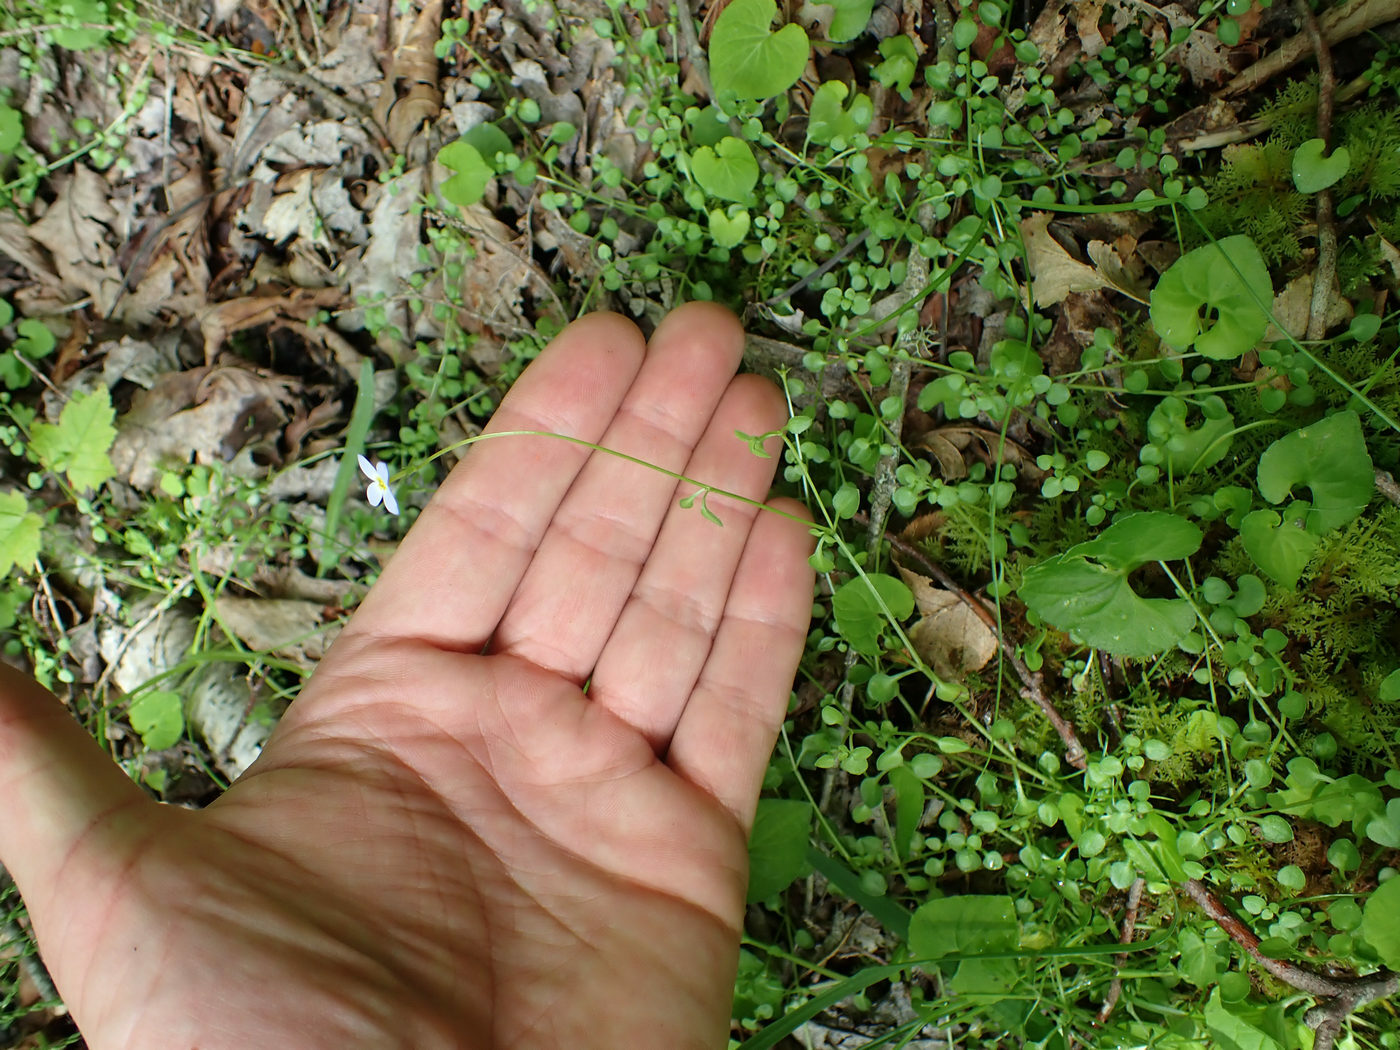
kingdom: Plantae
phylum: Tracheophyta
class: Magnoliopsida
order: Gentianales
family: Rubiaceae
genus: Houstonia
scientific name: Houstonia serpyllifolia
